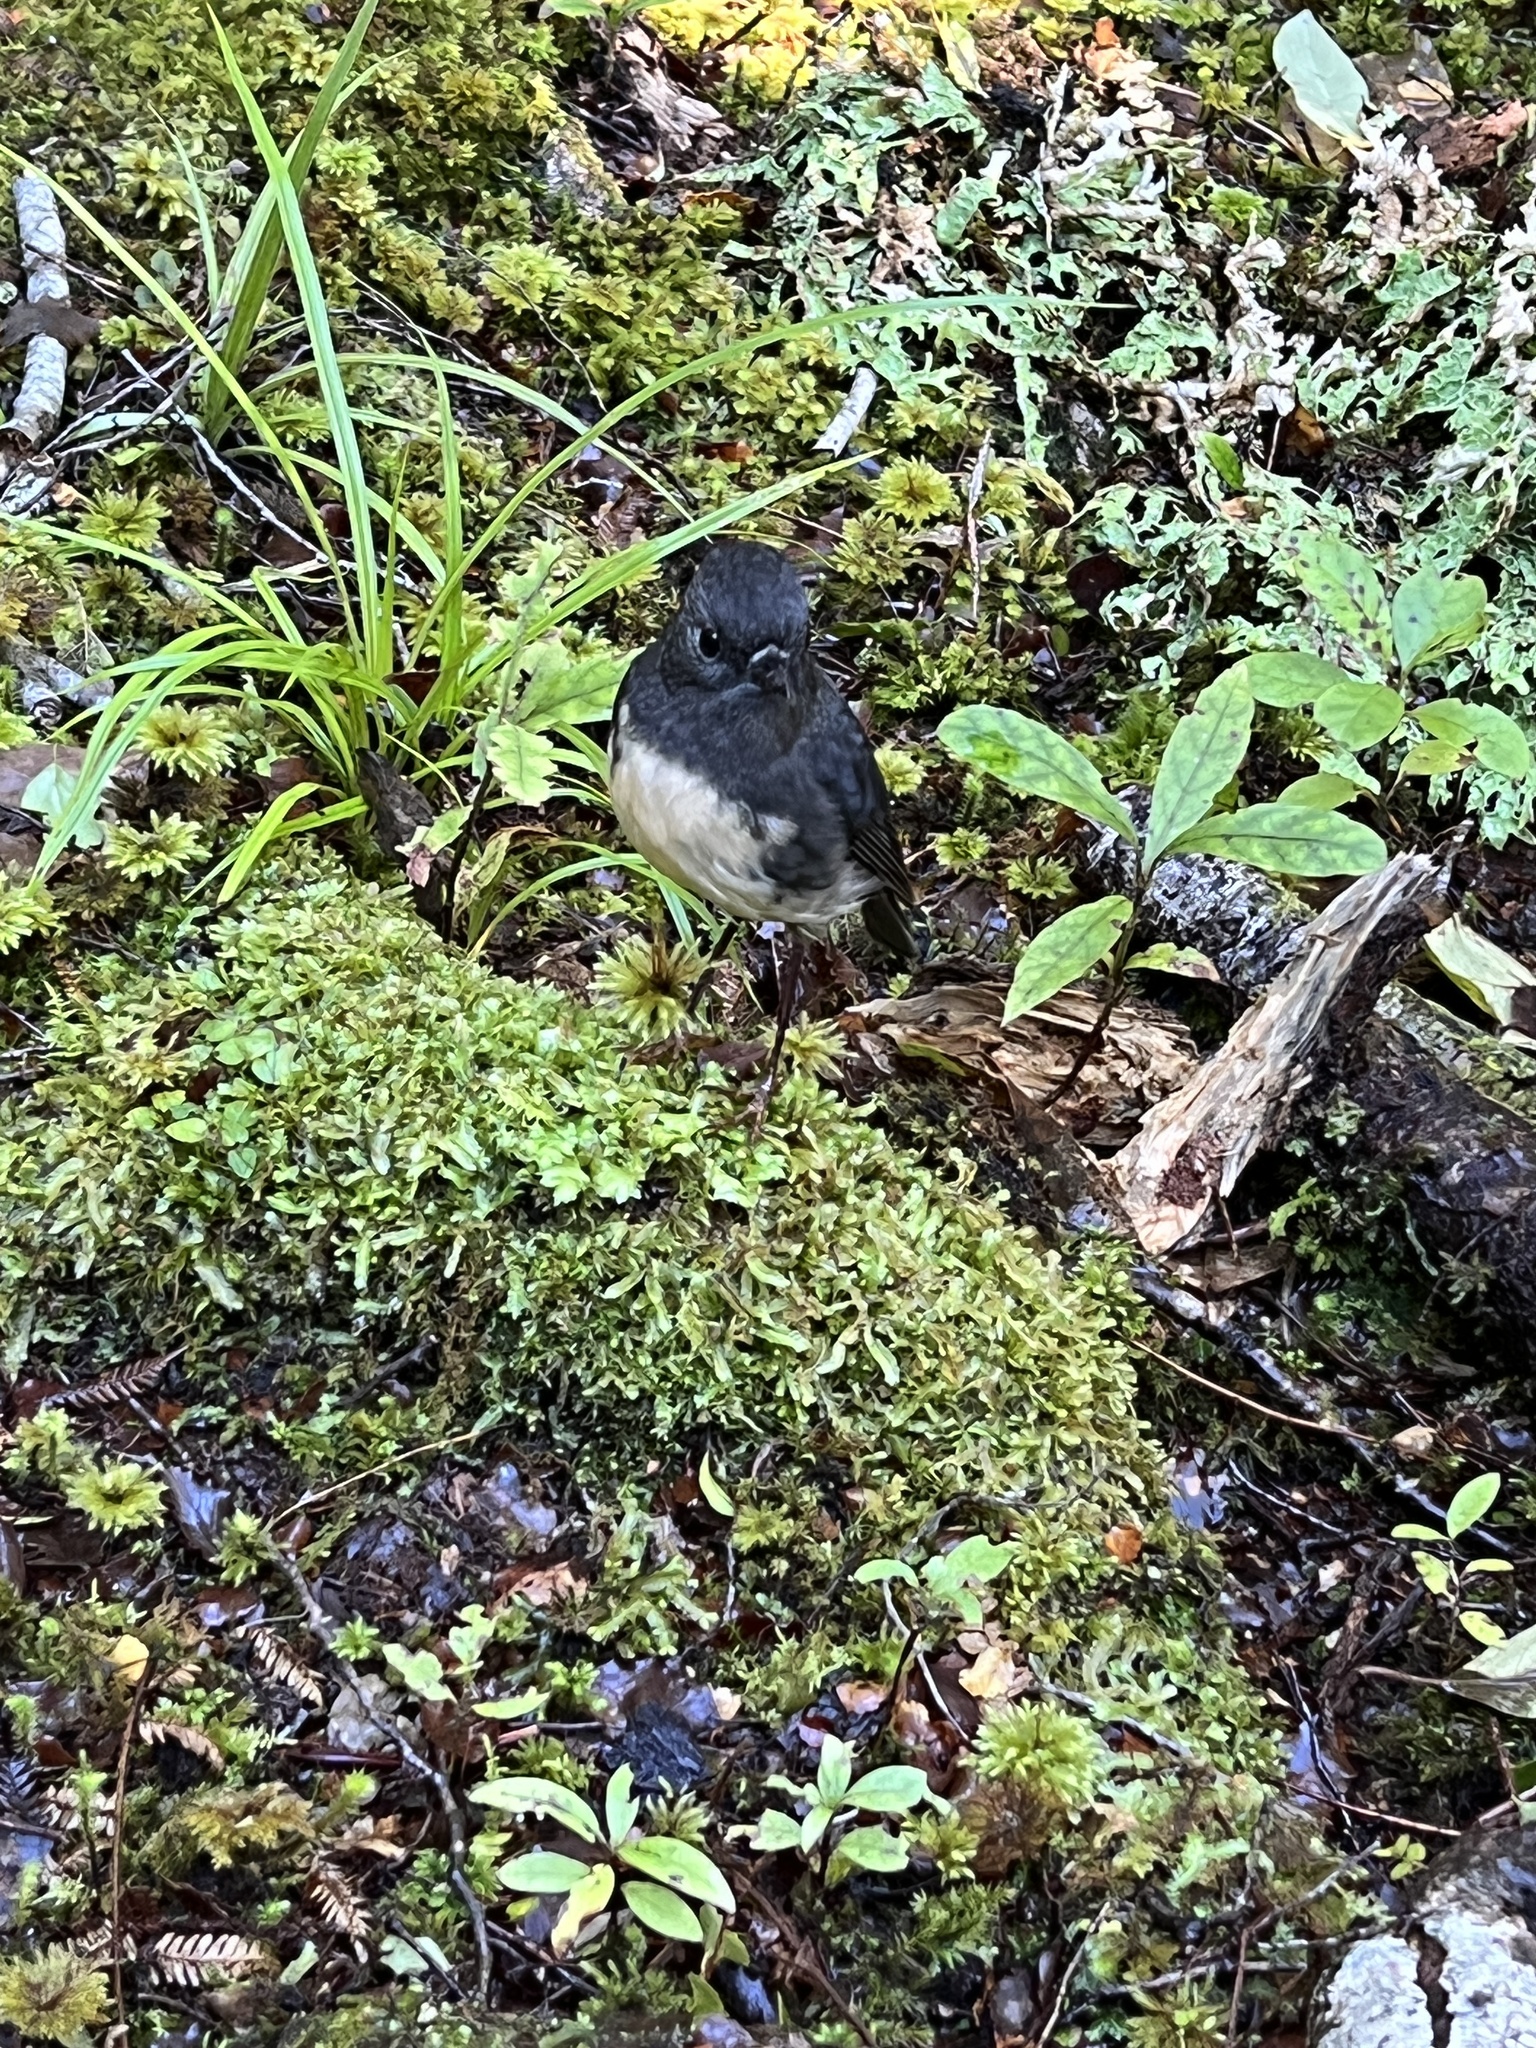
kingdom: Animalia
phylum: Chordata
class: Aves
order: Passeriformes
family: Petroicidae
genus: Petroica
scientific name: Petroica australis
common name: New zealand robin
